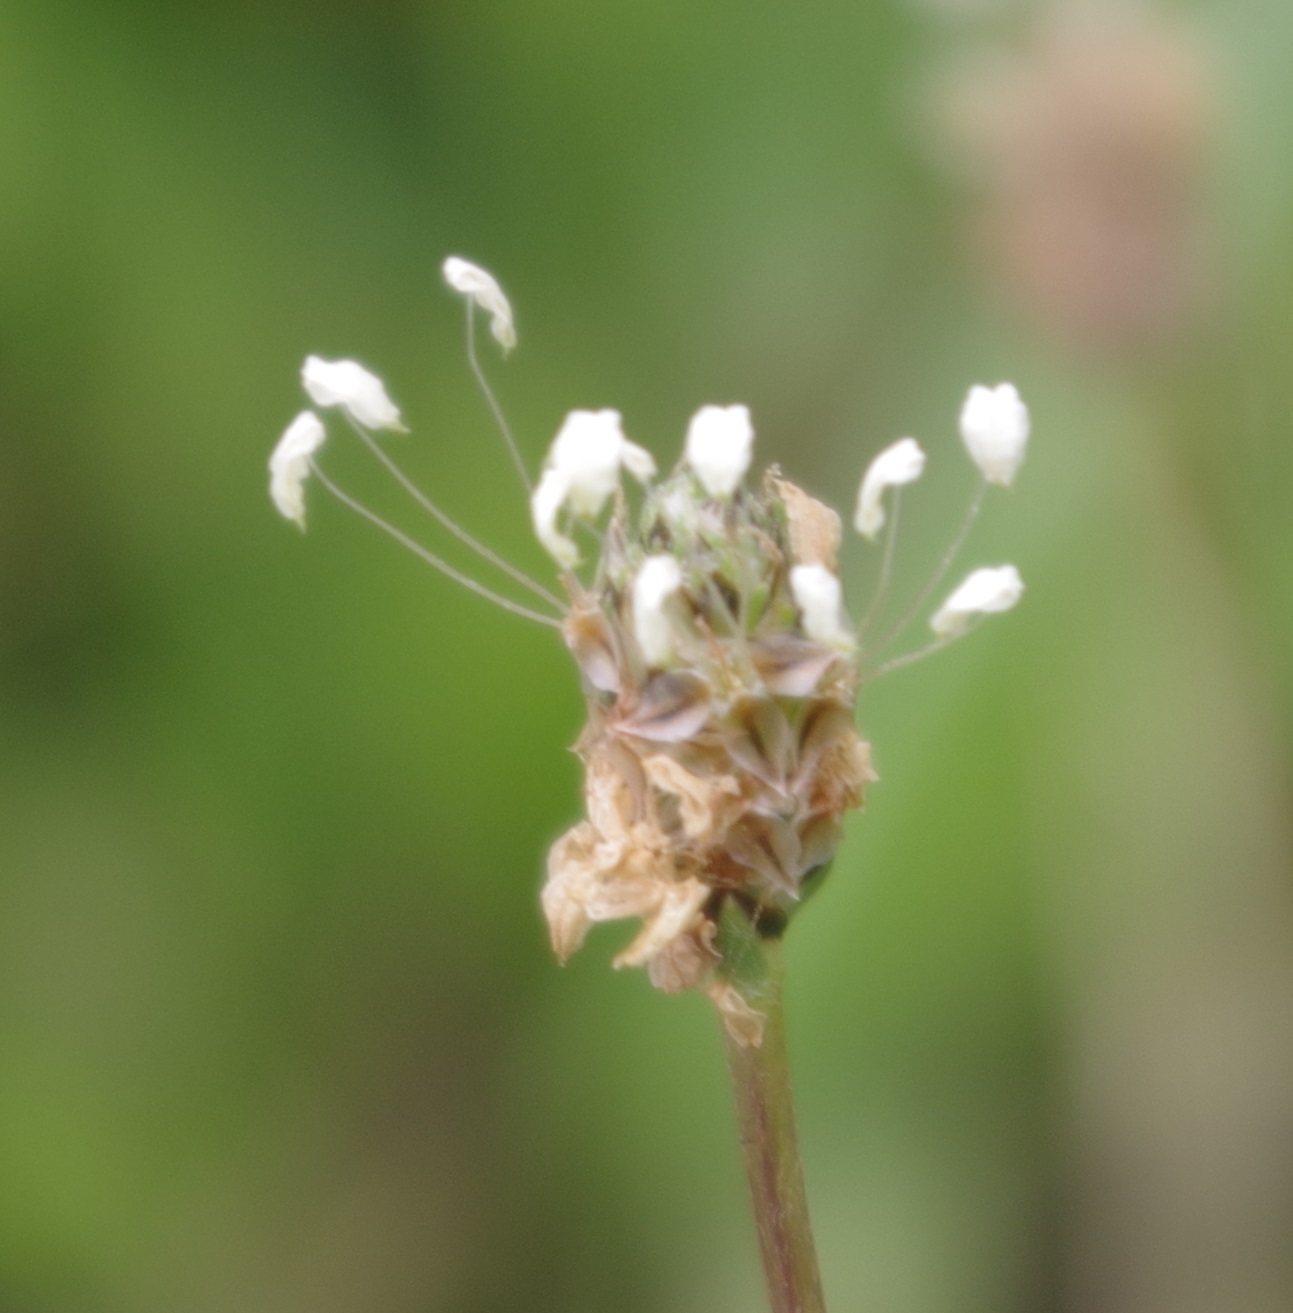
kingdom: Plantae
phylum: Tracheophyta
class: Magnoliopsida
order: Lamiales
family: Plantaginaceae
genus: Plantago
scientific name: Plantago lanceolata
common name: Ribwort plantain
